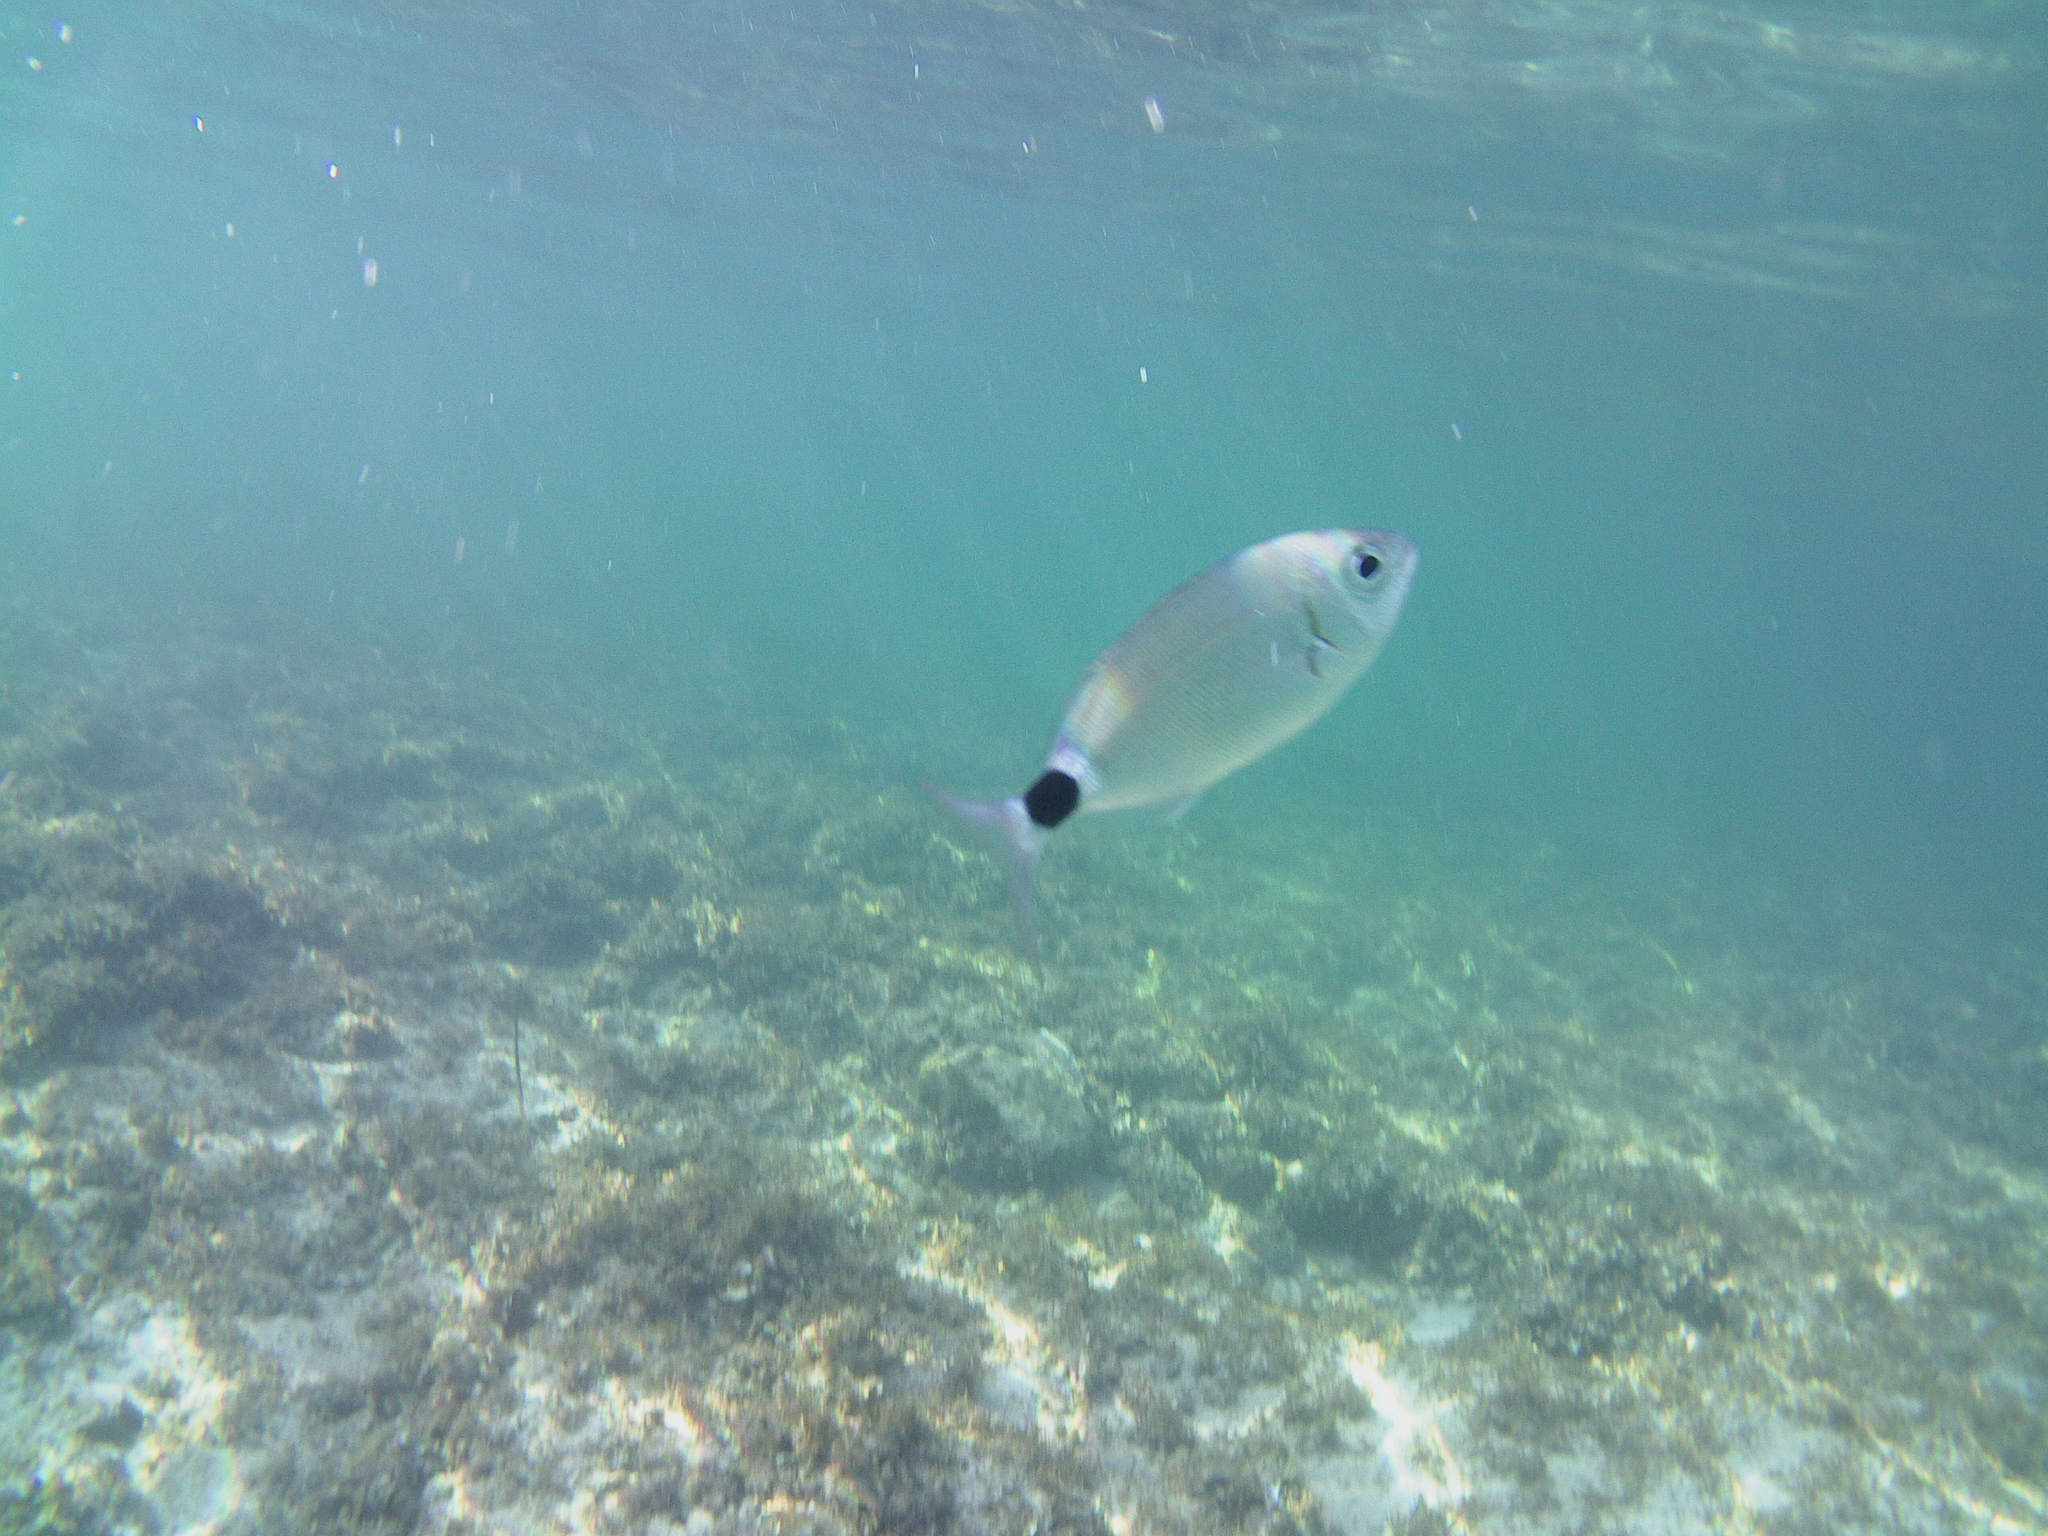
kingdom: Animalia
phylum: Chordata
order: Perciformes
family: Sparidae
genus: Oblada
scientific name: Oblada melanura
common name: Saddled seabream
